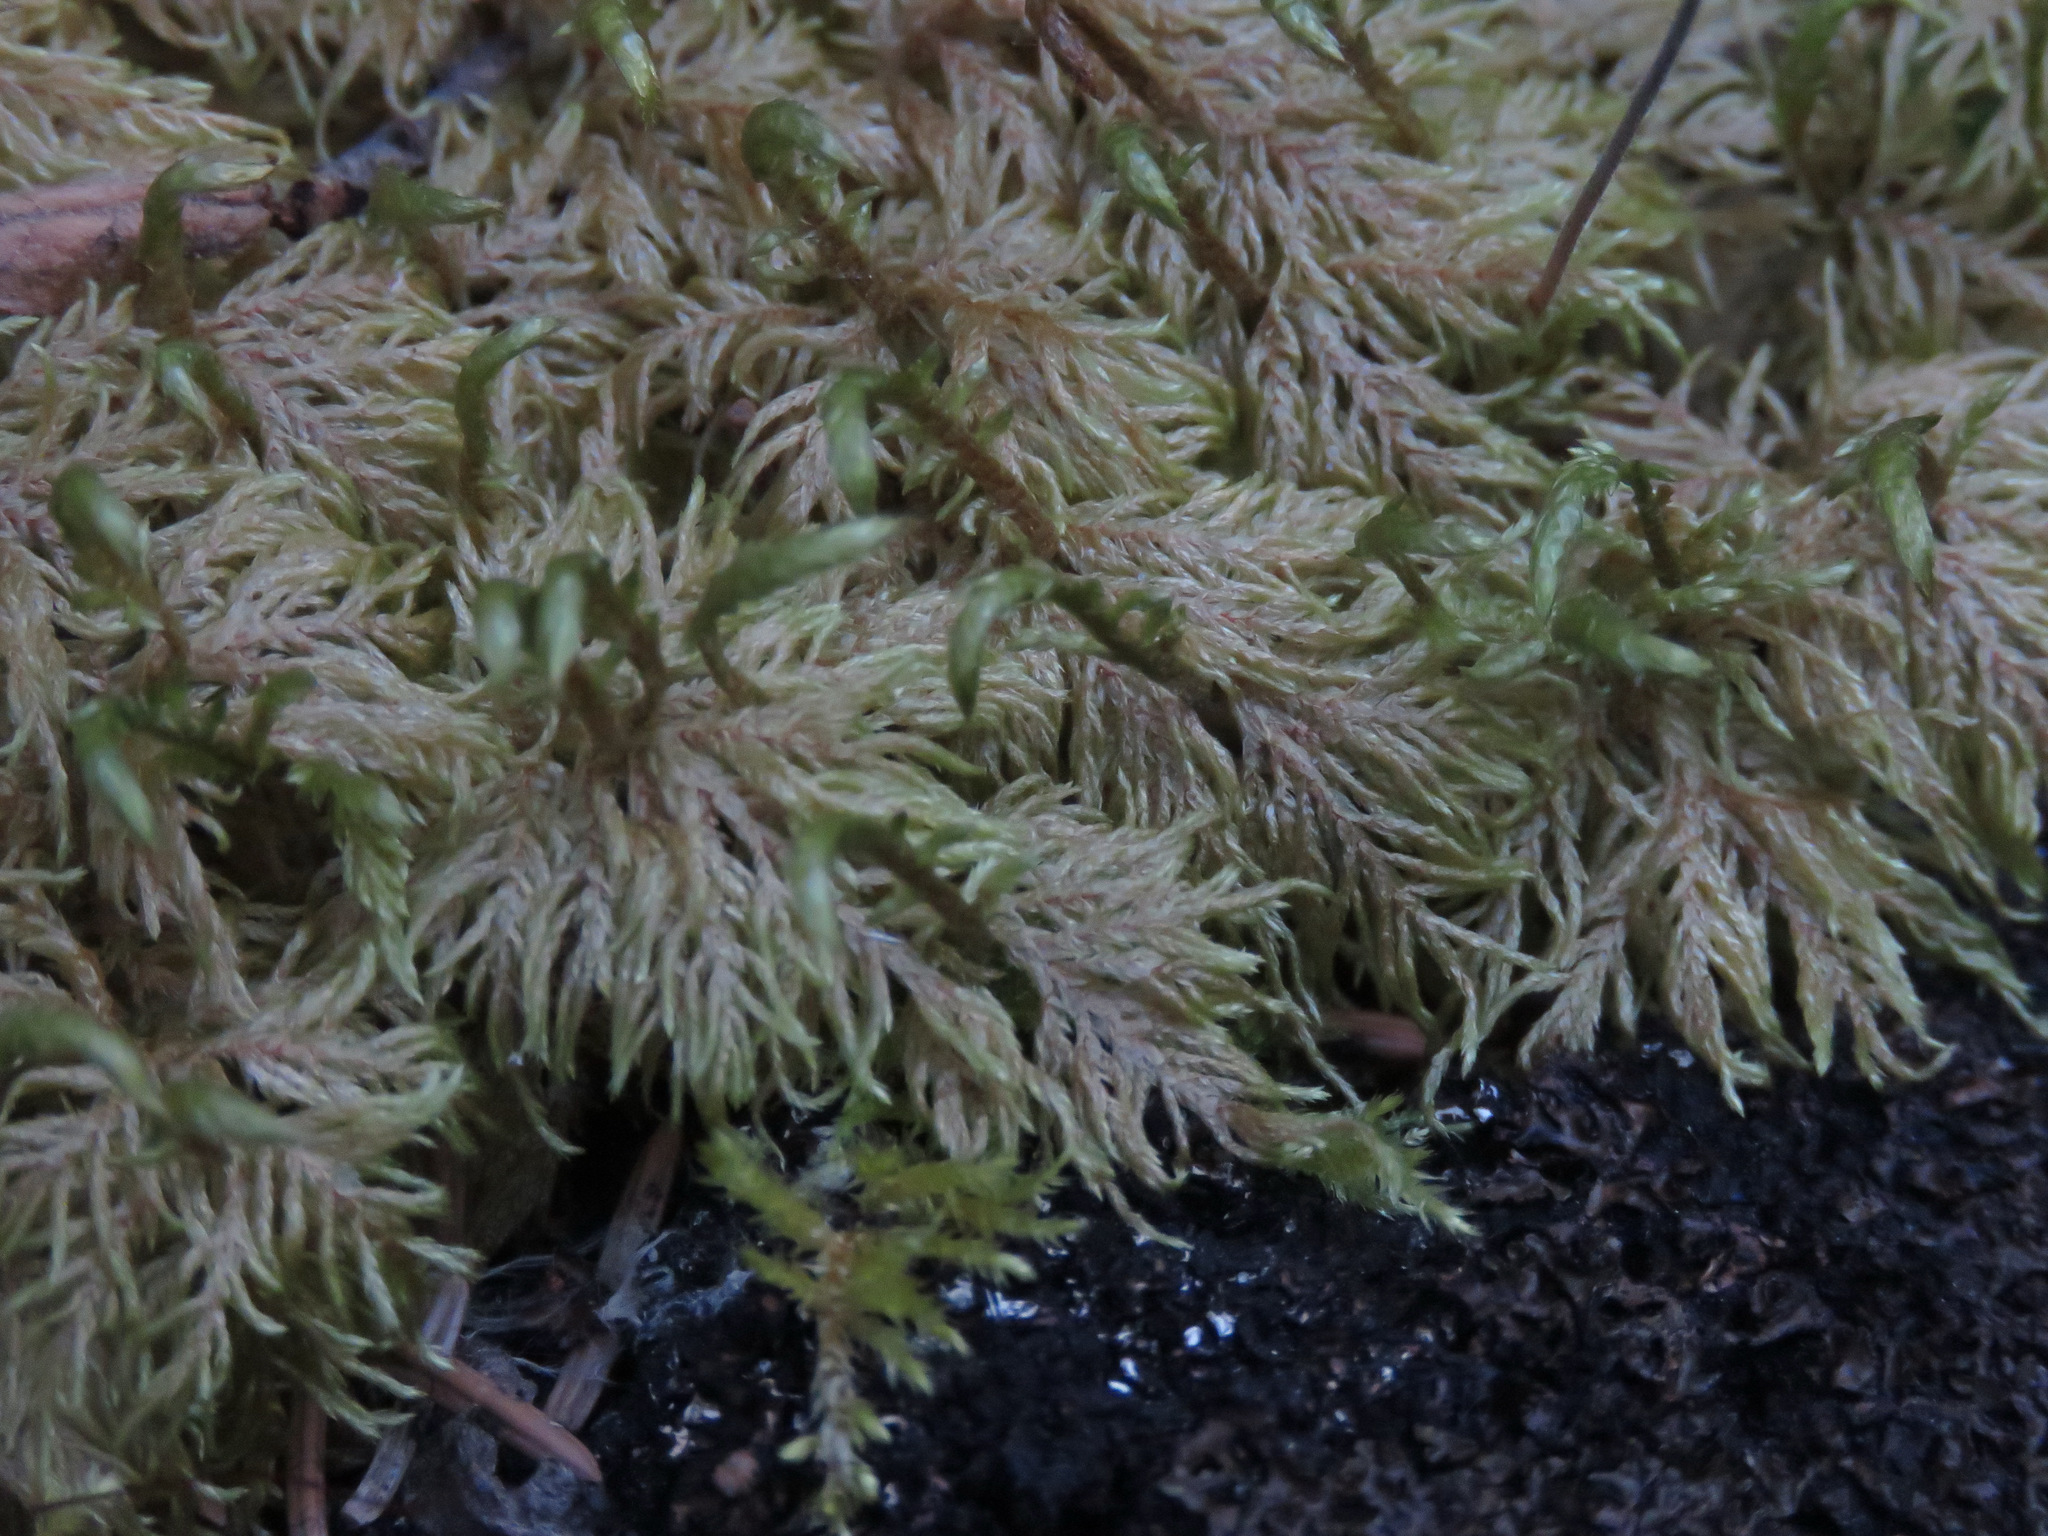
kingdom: Plantae
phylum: Bryophyta
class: Bryopsida
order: Hypnales
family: Hylocomiaceae
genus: Hylocomium
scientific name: Hylocomium splendens
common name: Stairstep moss
